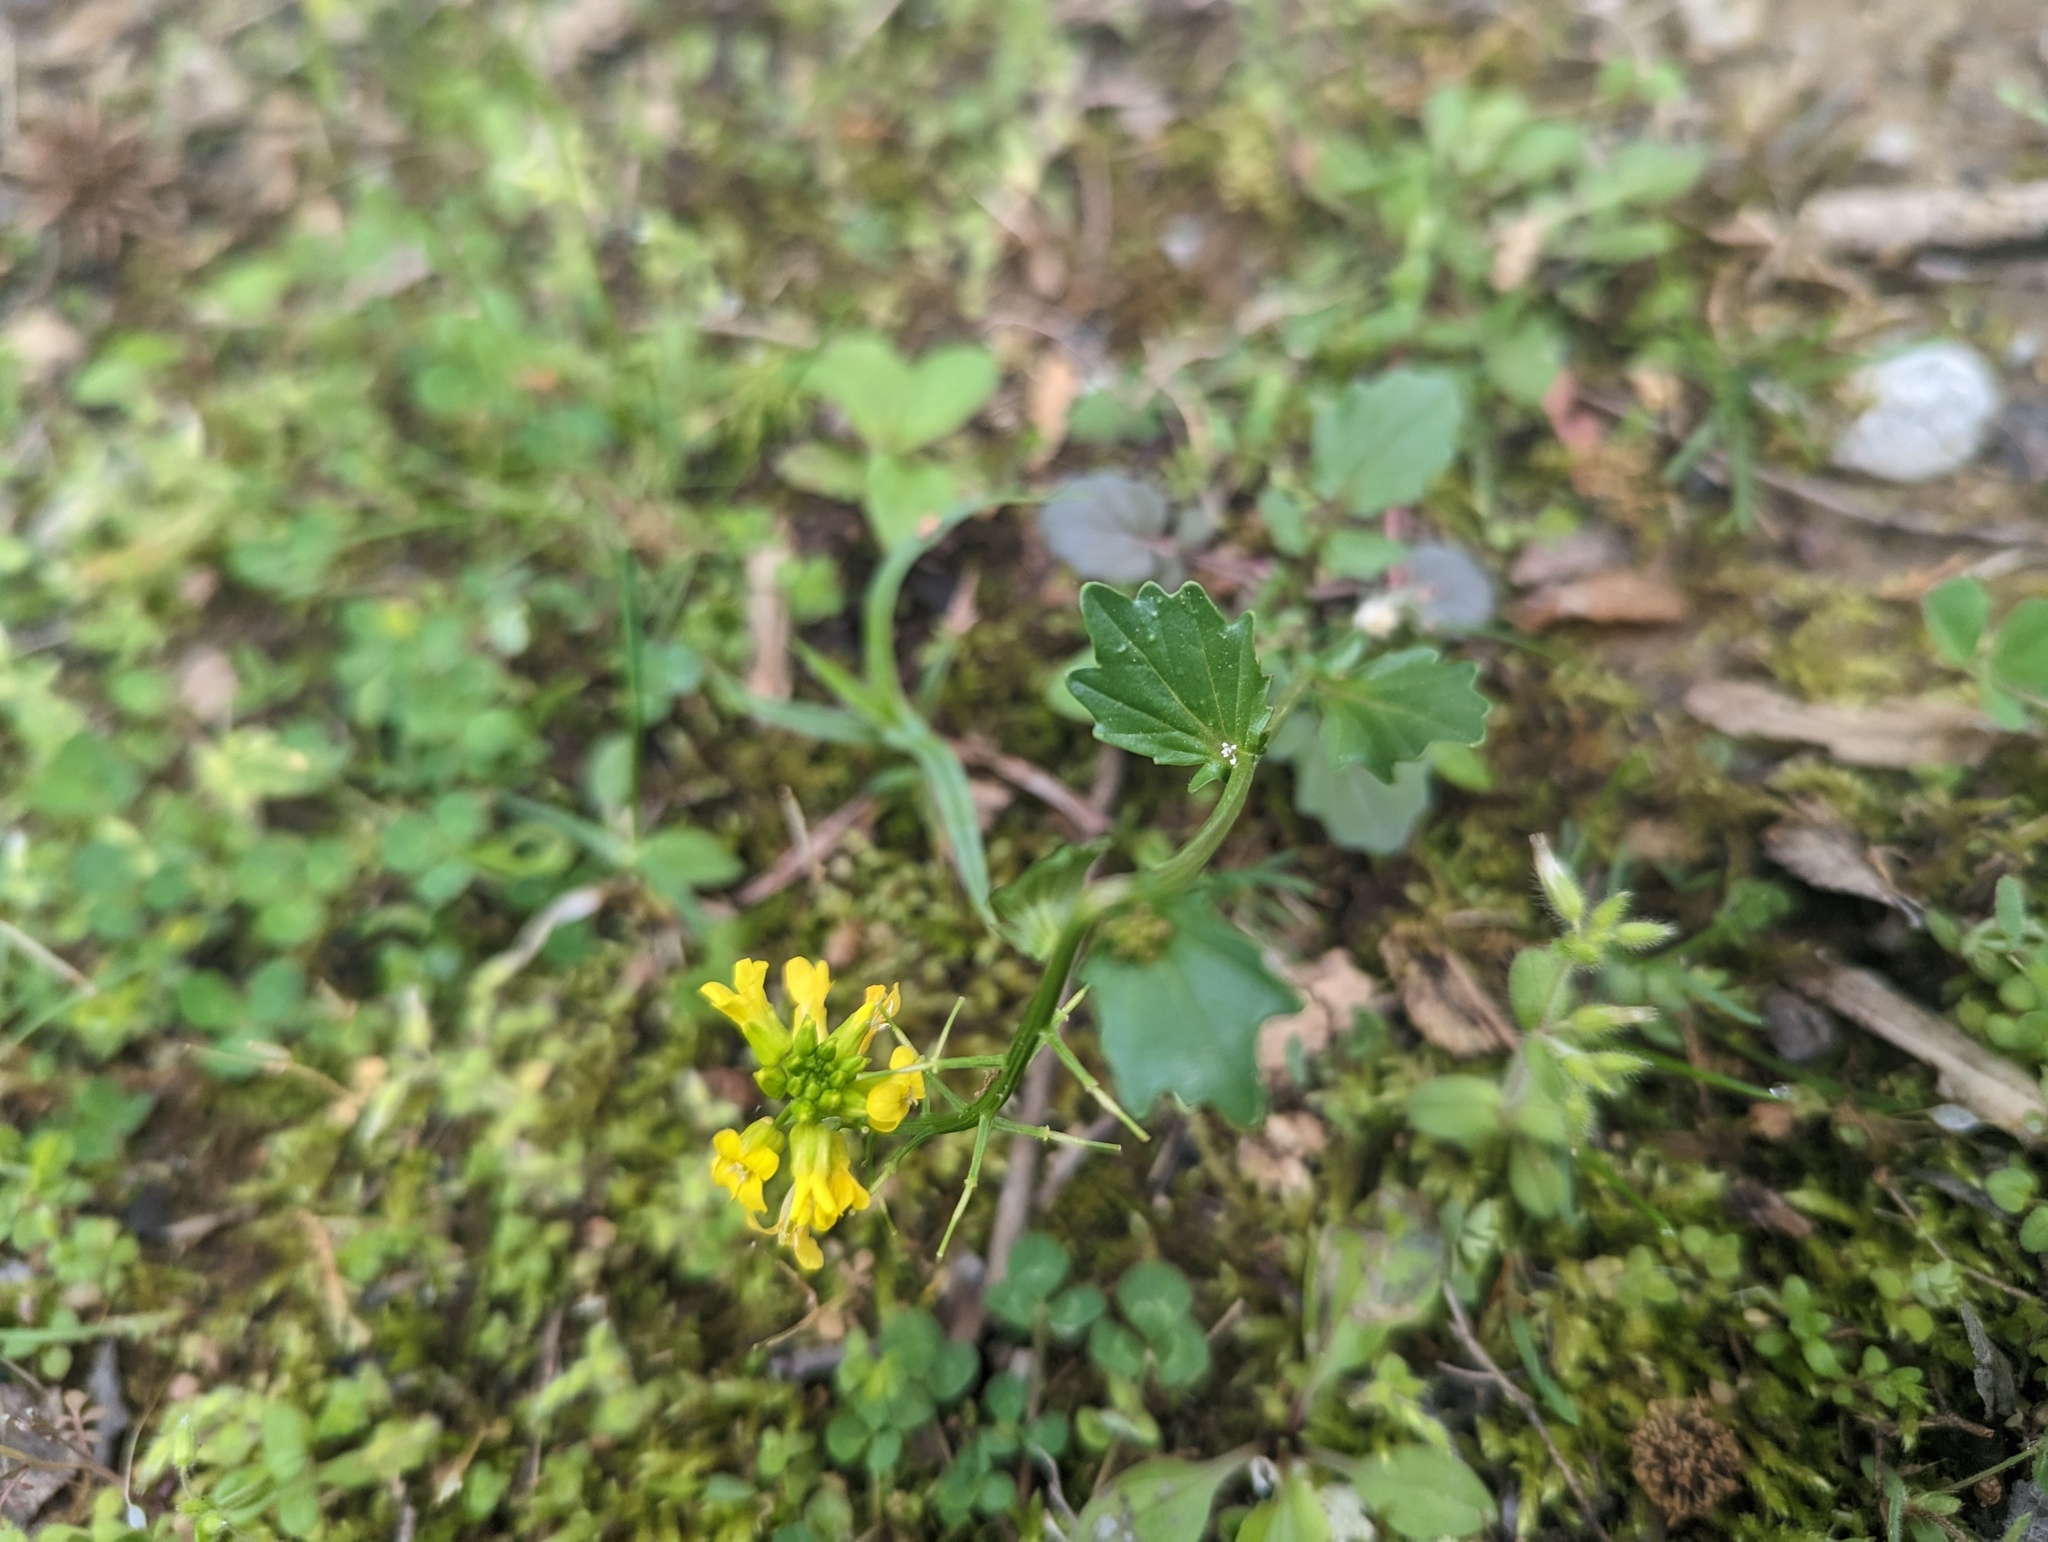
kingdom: Plantae
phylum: Tracheophyta
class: Magnoliopsida
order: Brassicales
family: Brassicaceae
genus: Barbarea
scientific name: Barbarea vulgaris
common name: Cressy-greens
